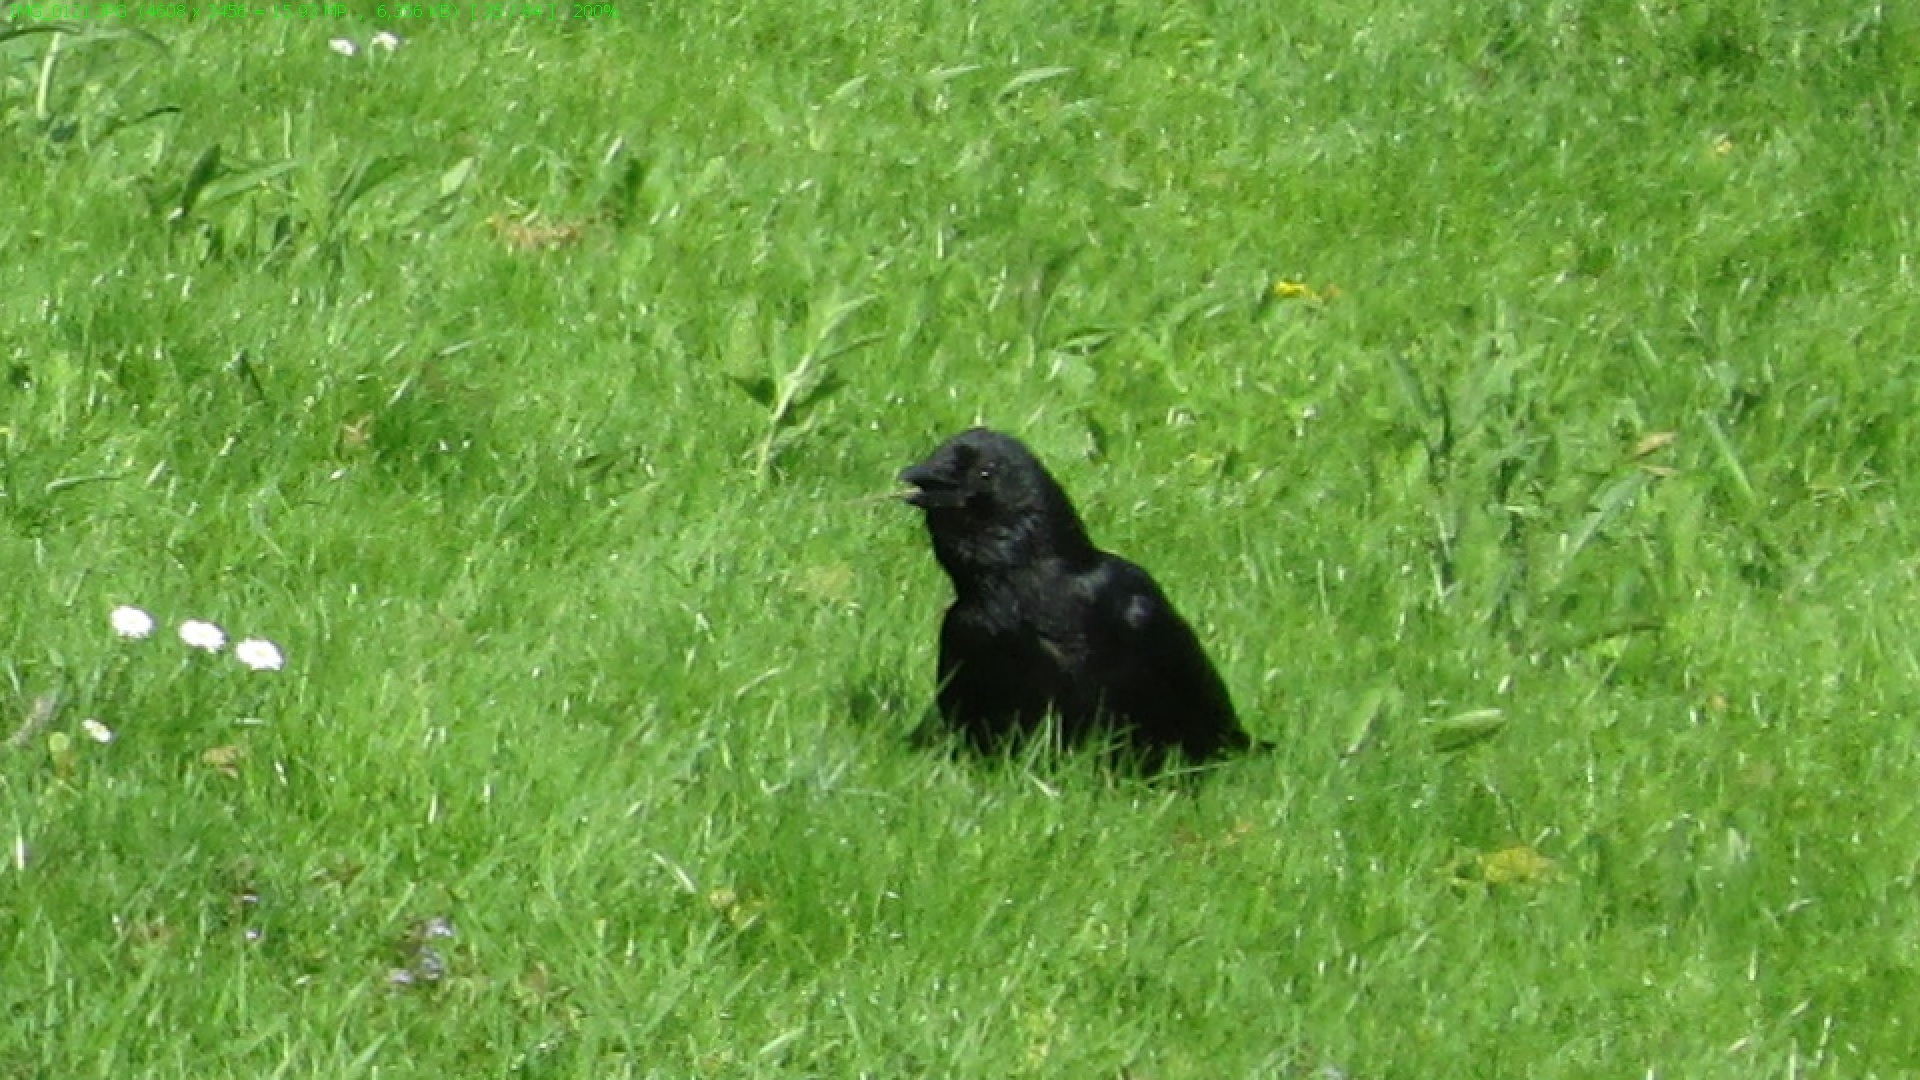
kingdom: Animalia
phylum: Chordata
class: Aves
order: Passeriformes
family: Corvidae
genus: Corvus
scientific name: Corvus corone
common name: Carrion crow
